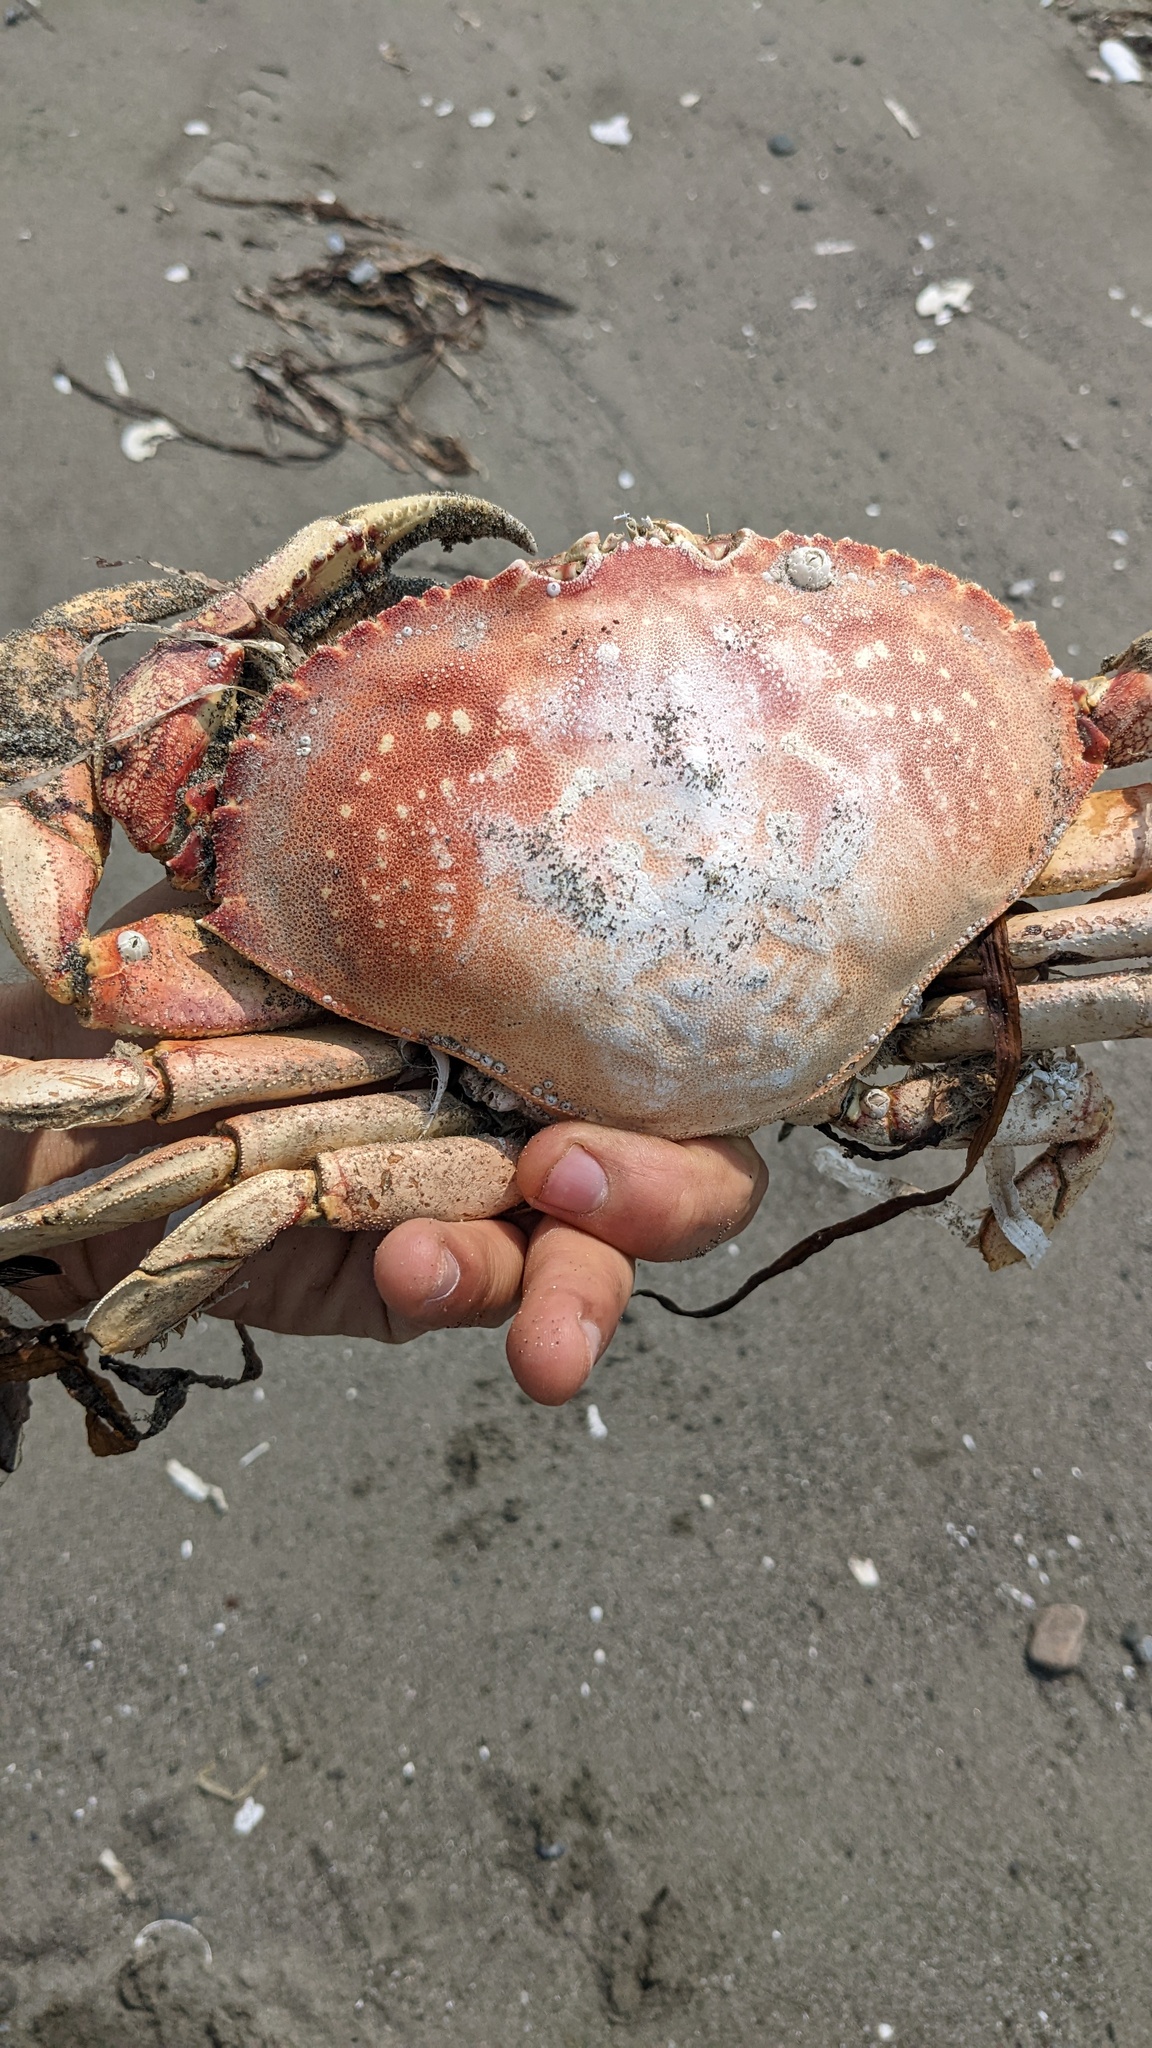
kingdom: Animalia
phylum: Arthropoda
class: Malacostraca
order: Decapoda
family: Cancridae
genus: Metacarcinus
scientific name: Metacarcinus magister
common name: Californian crab
